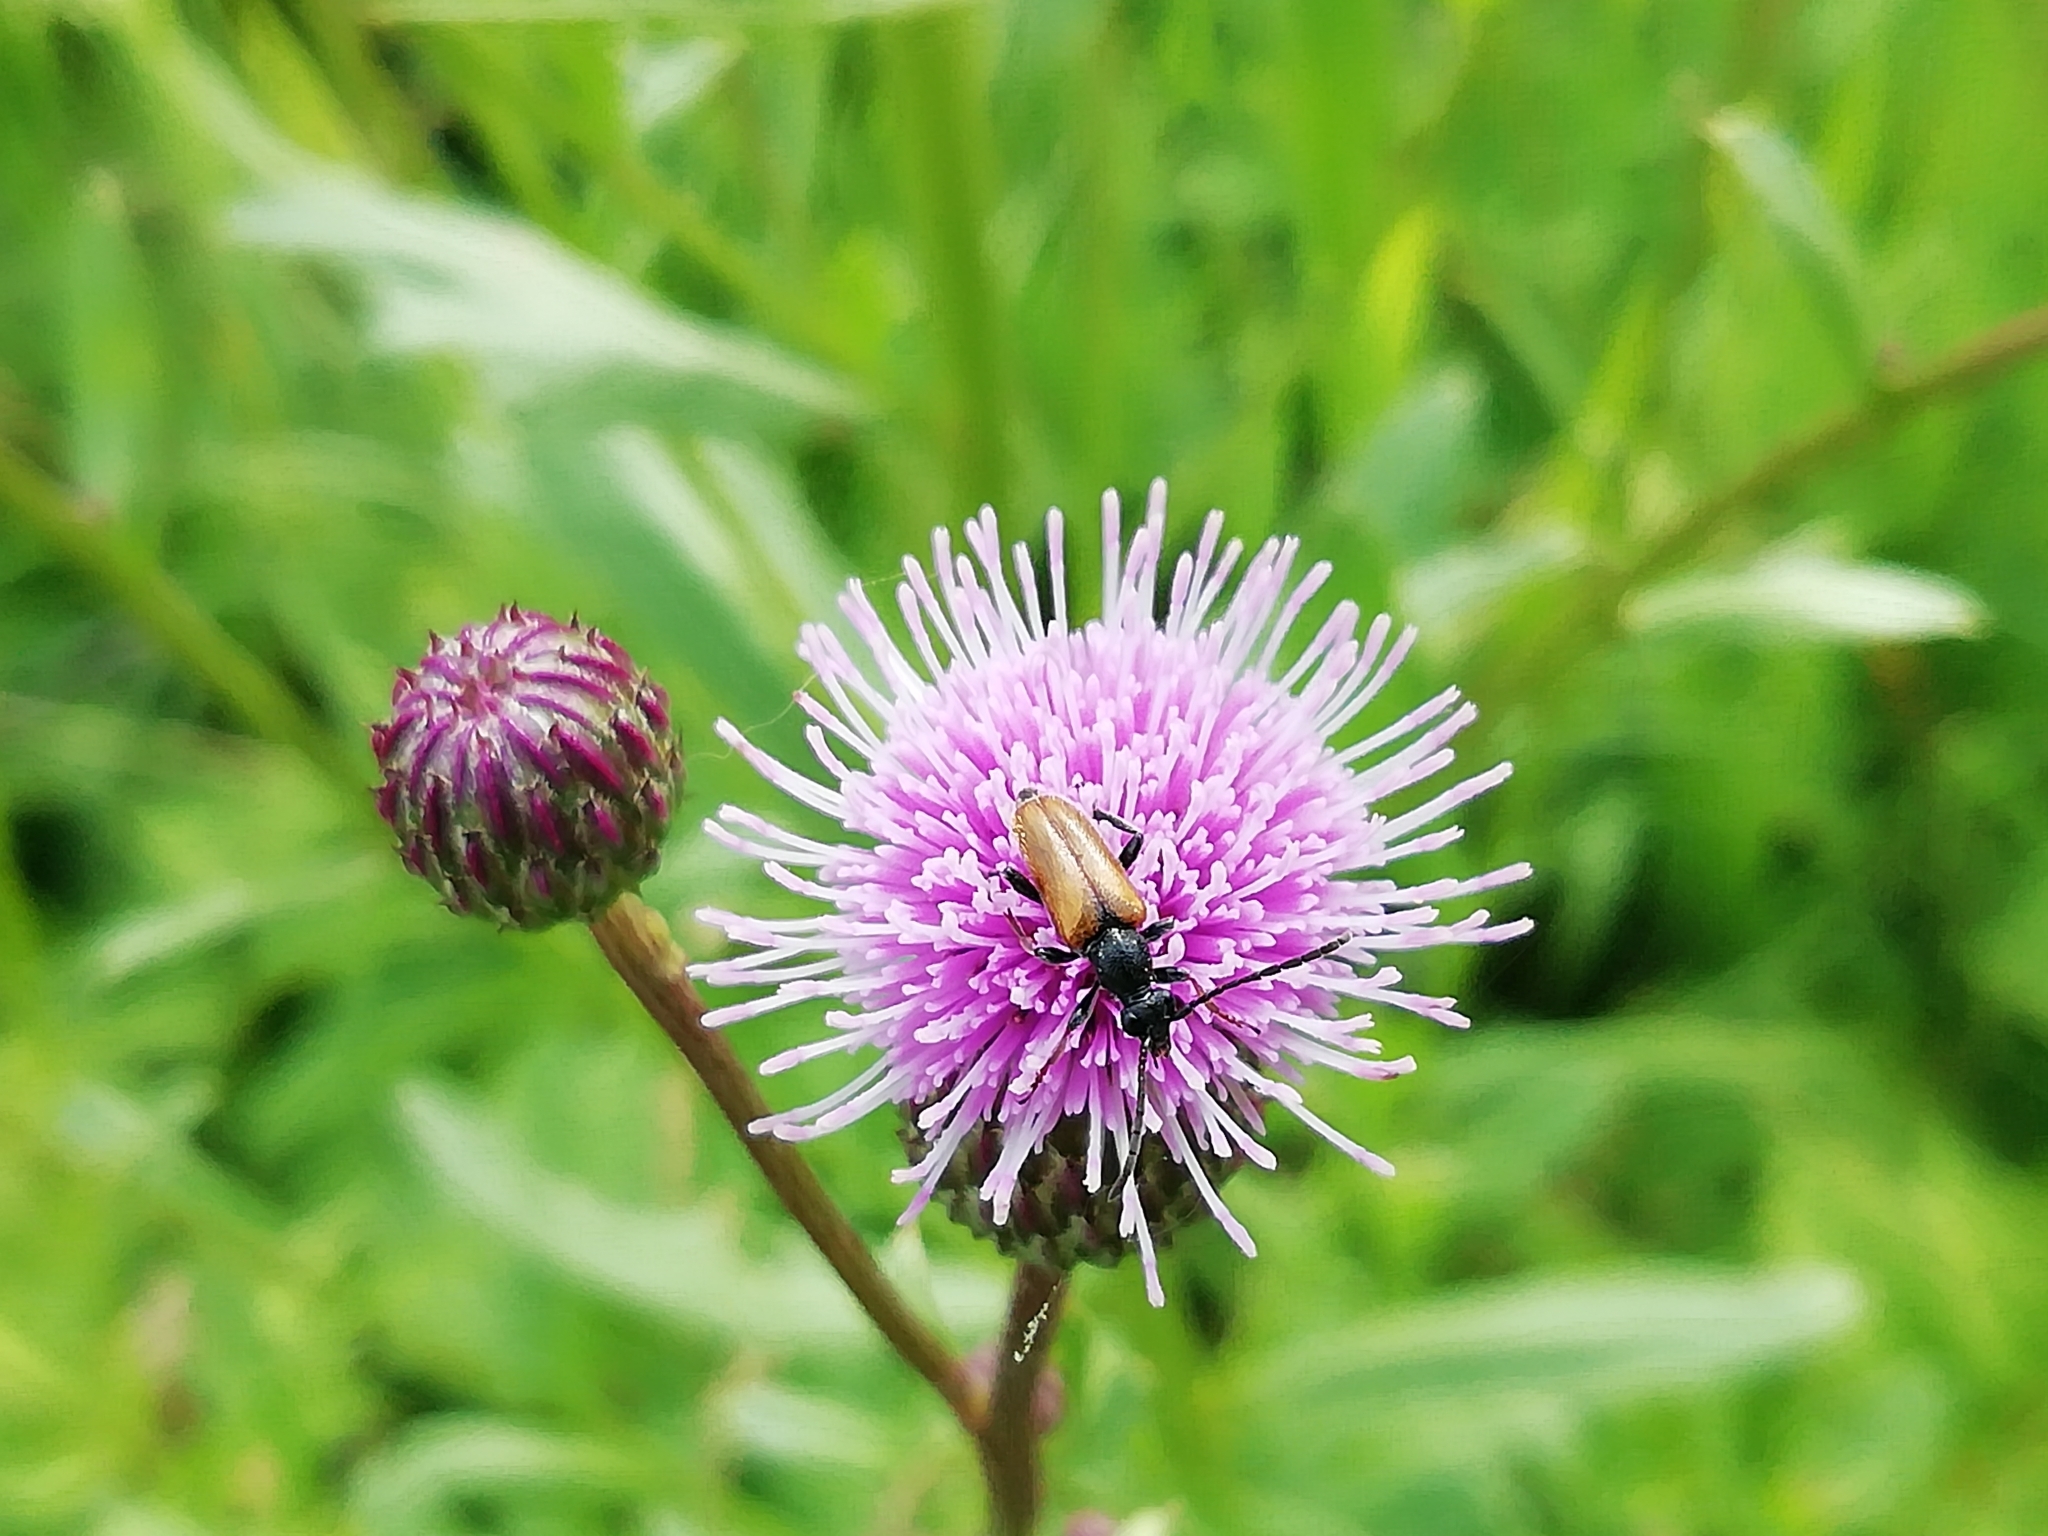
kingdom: Animalia
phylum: Arthropoda
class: Insecta
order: Coleoptera
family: Cerambycidae
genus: Pseudovadonia
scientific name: Pseudovadonia livida
